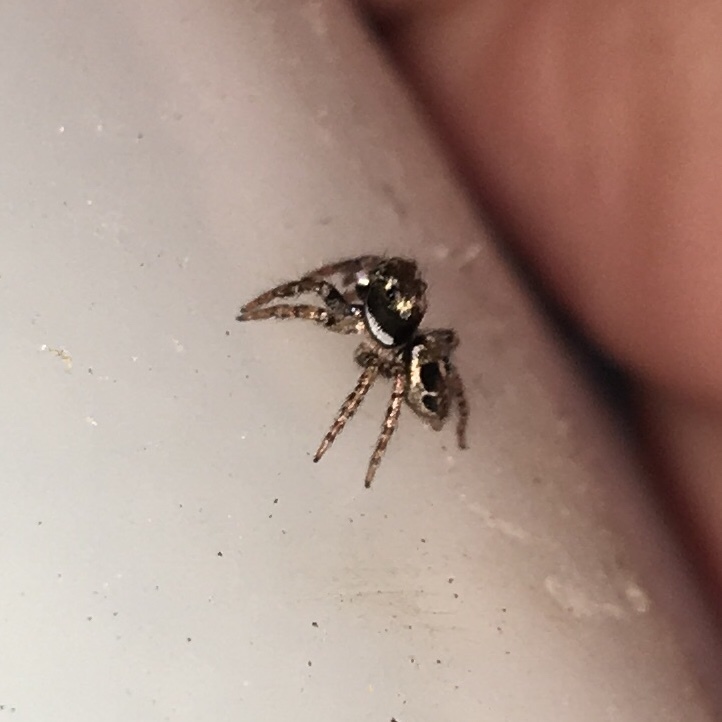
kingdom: Animalia
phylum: Arthropoda
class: Arachnida
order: Araneae
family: Salticidae
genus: Anasaitis
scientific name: Anasaitis canosa
